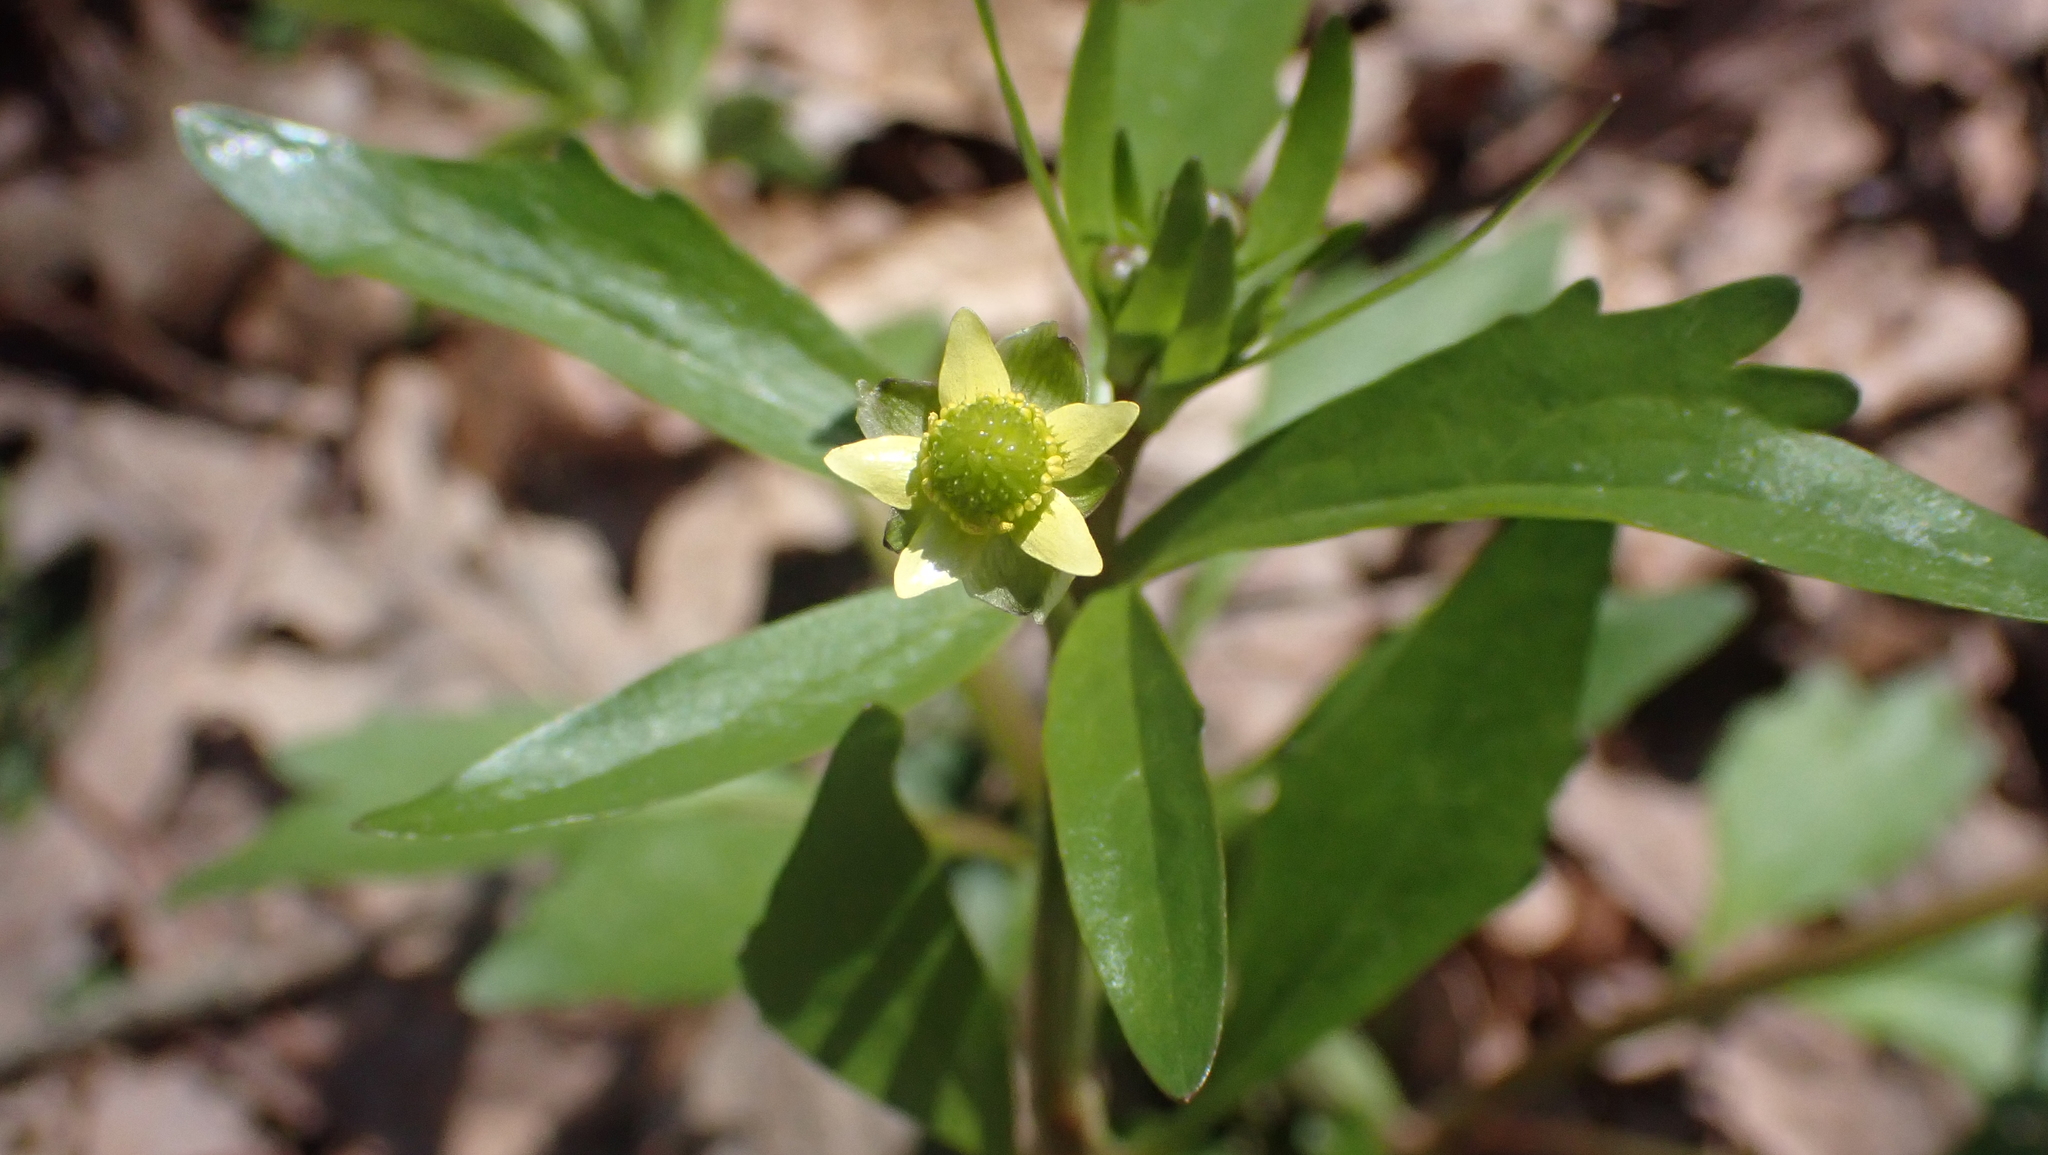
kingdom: Plantae
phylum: Tracheophyta
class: Magnoliopsida
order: Ranunculales
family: Ranunculaceae
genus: Ranunculus
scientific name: Ranunculus abortivus
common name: Early wood buttercup
